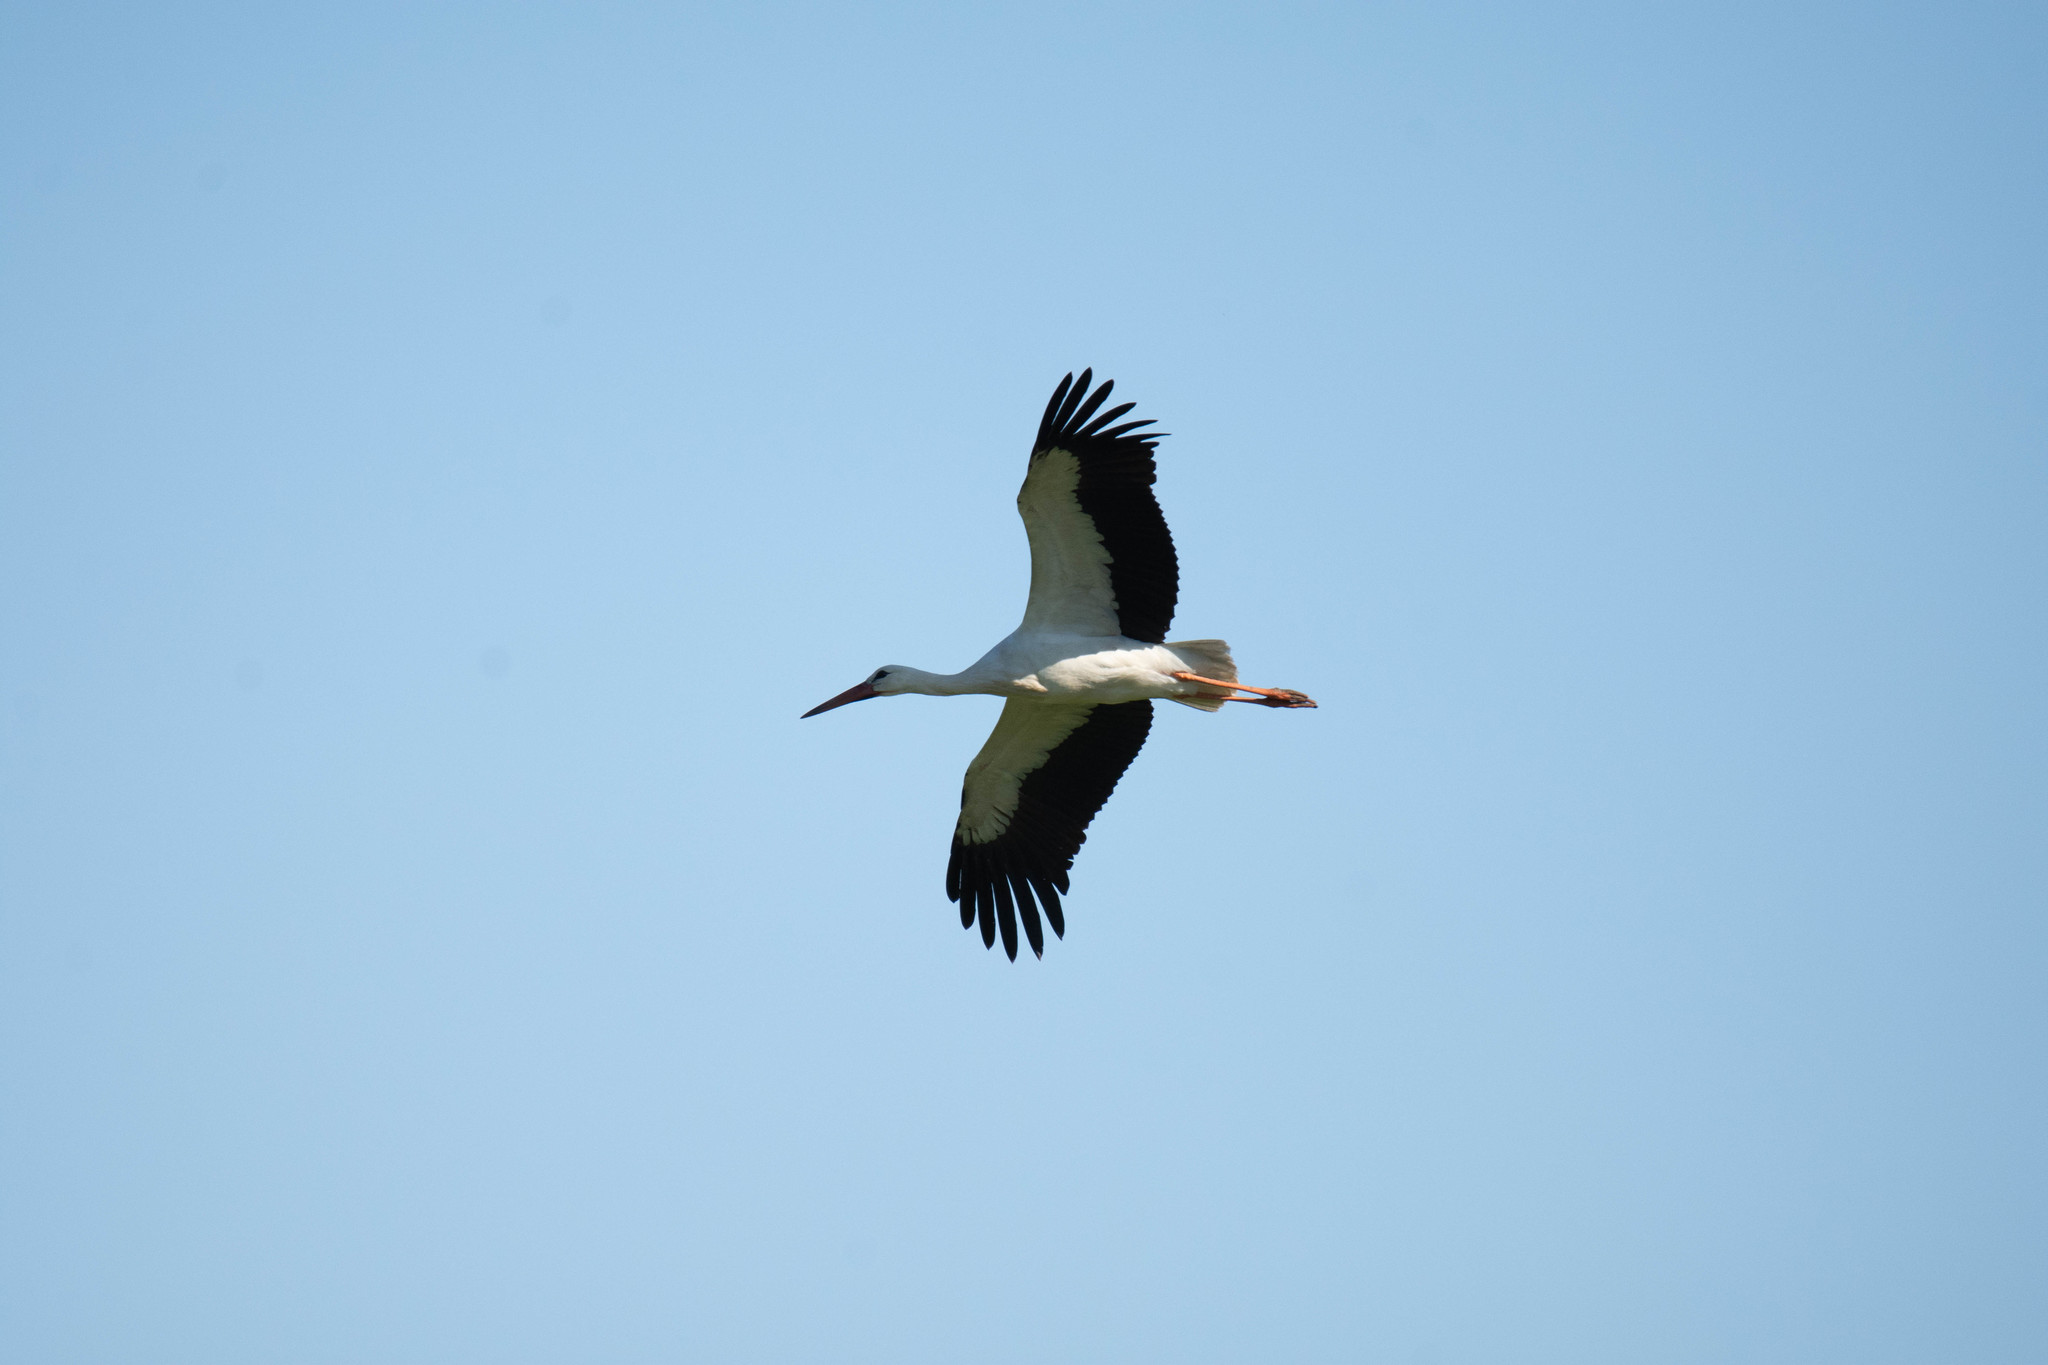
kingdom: Animalia
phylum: Chordata
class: Aves
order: Ciconiiformes
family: Ciconiidae
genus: Ciconia
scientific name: Ciconia ciconia
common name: White stork
